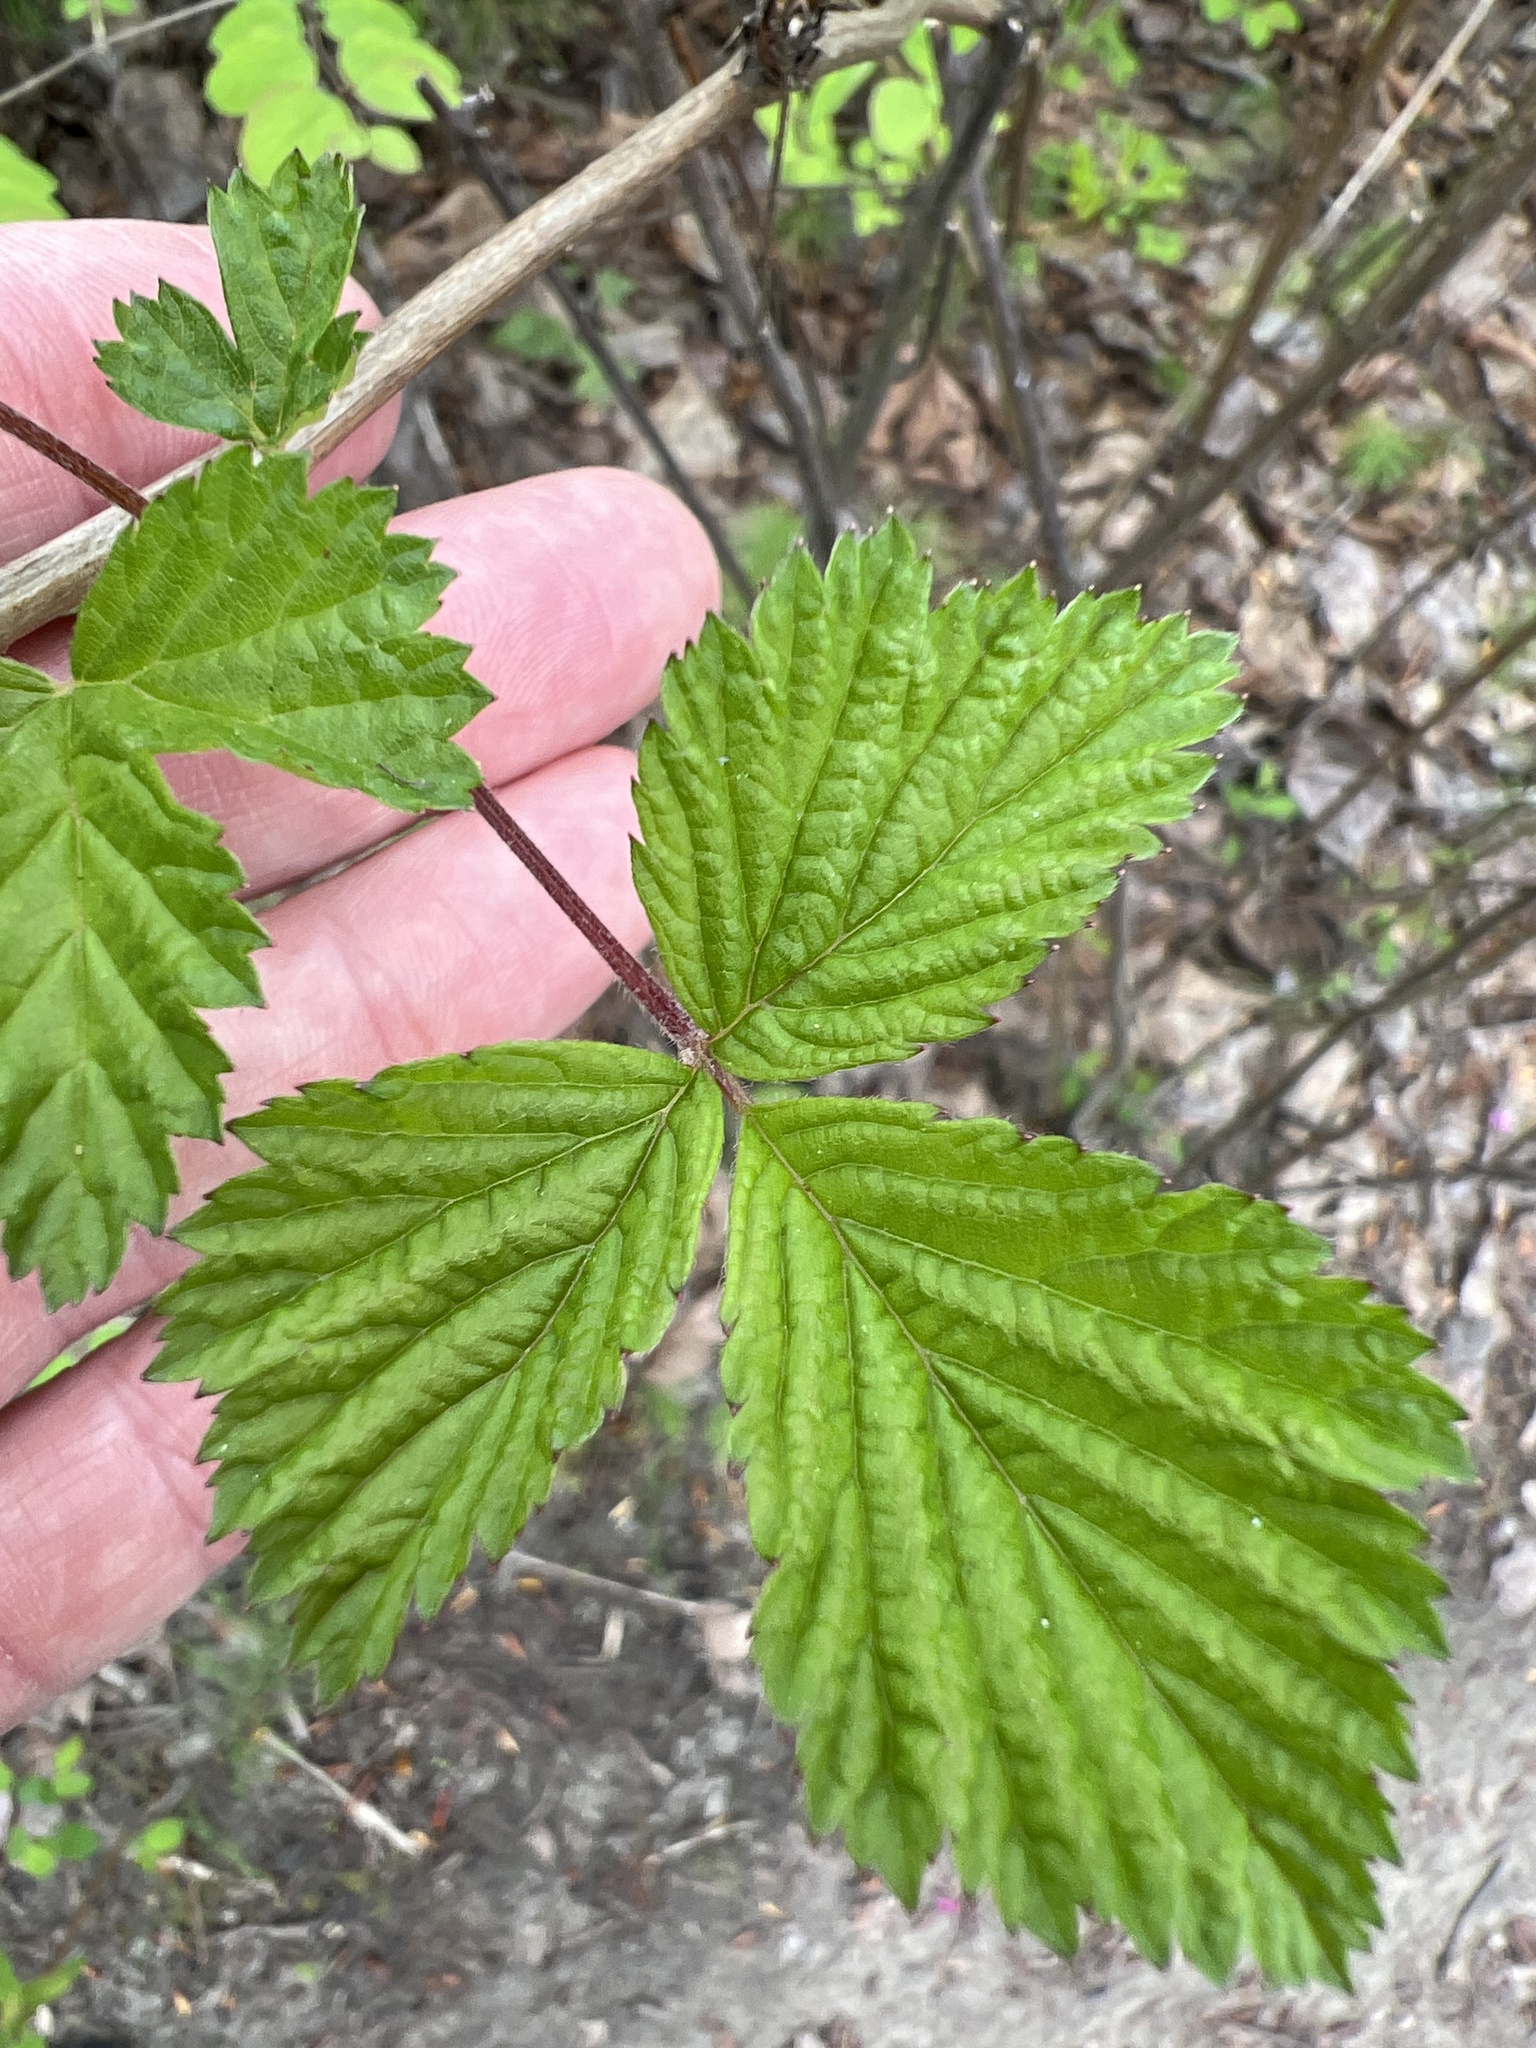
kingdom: Plantae
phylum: Tracheophyta
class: Magnoliopsida
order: Rosales
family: Rosaceae
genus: Rubus
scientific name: Rubus spectabilis
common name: Salmonberry
